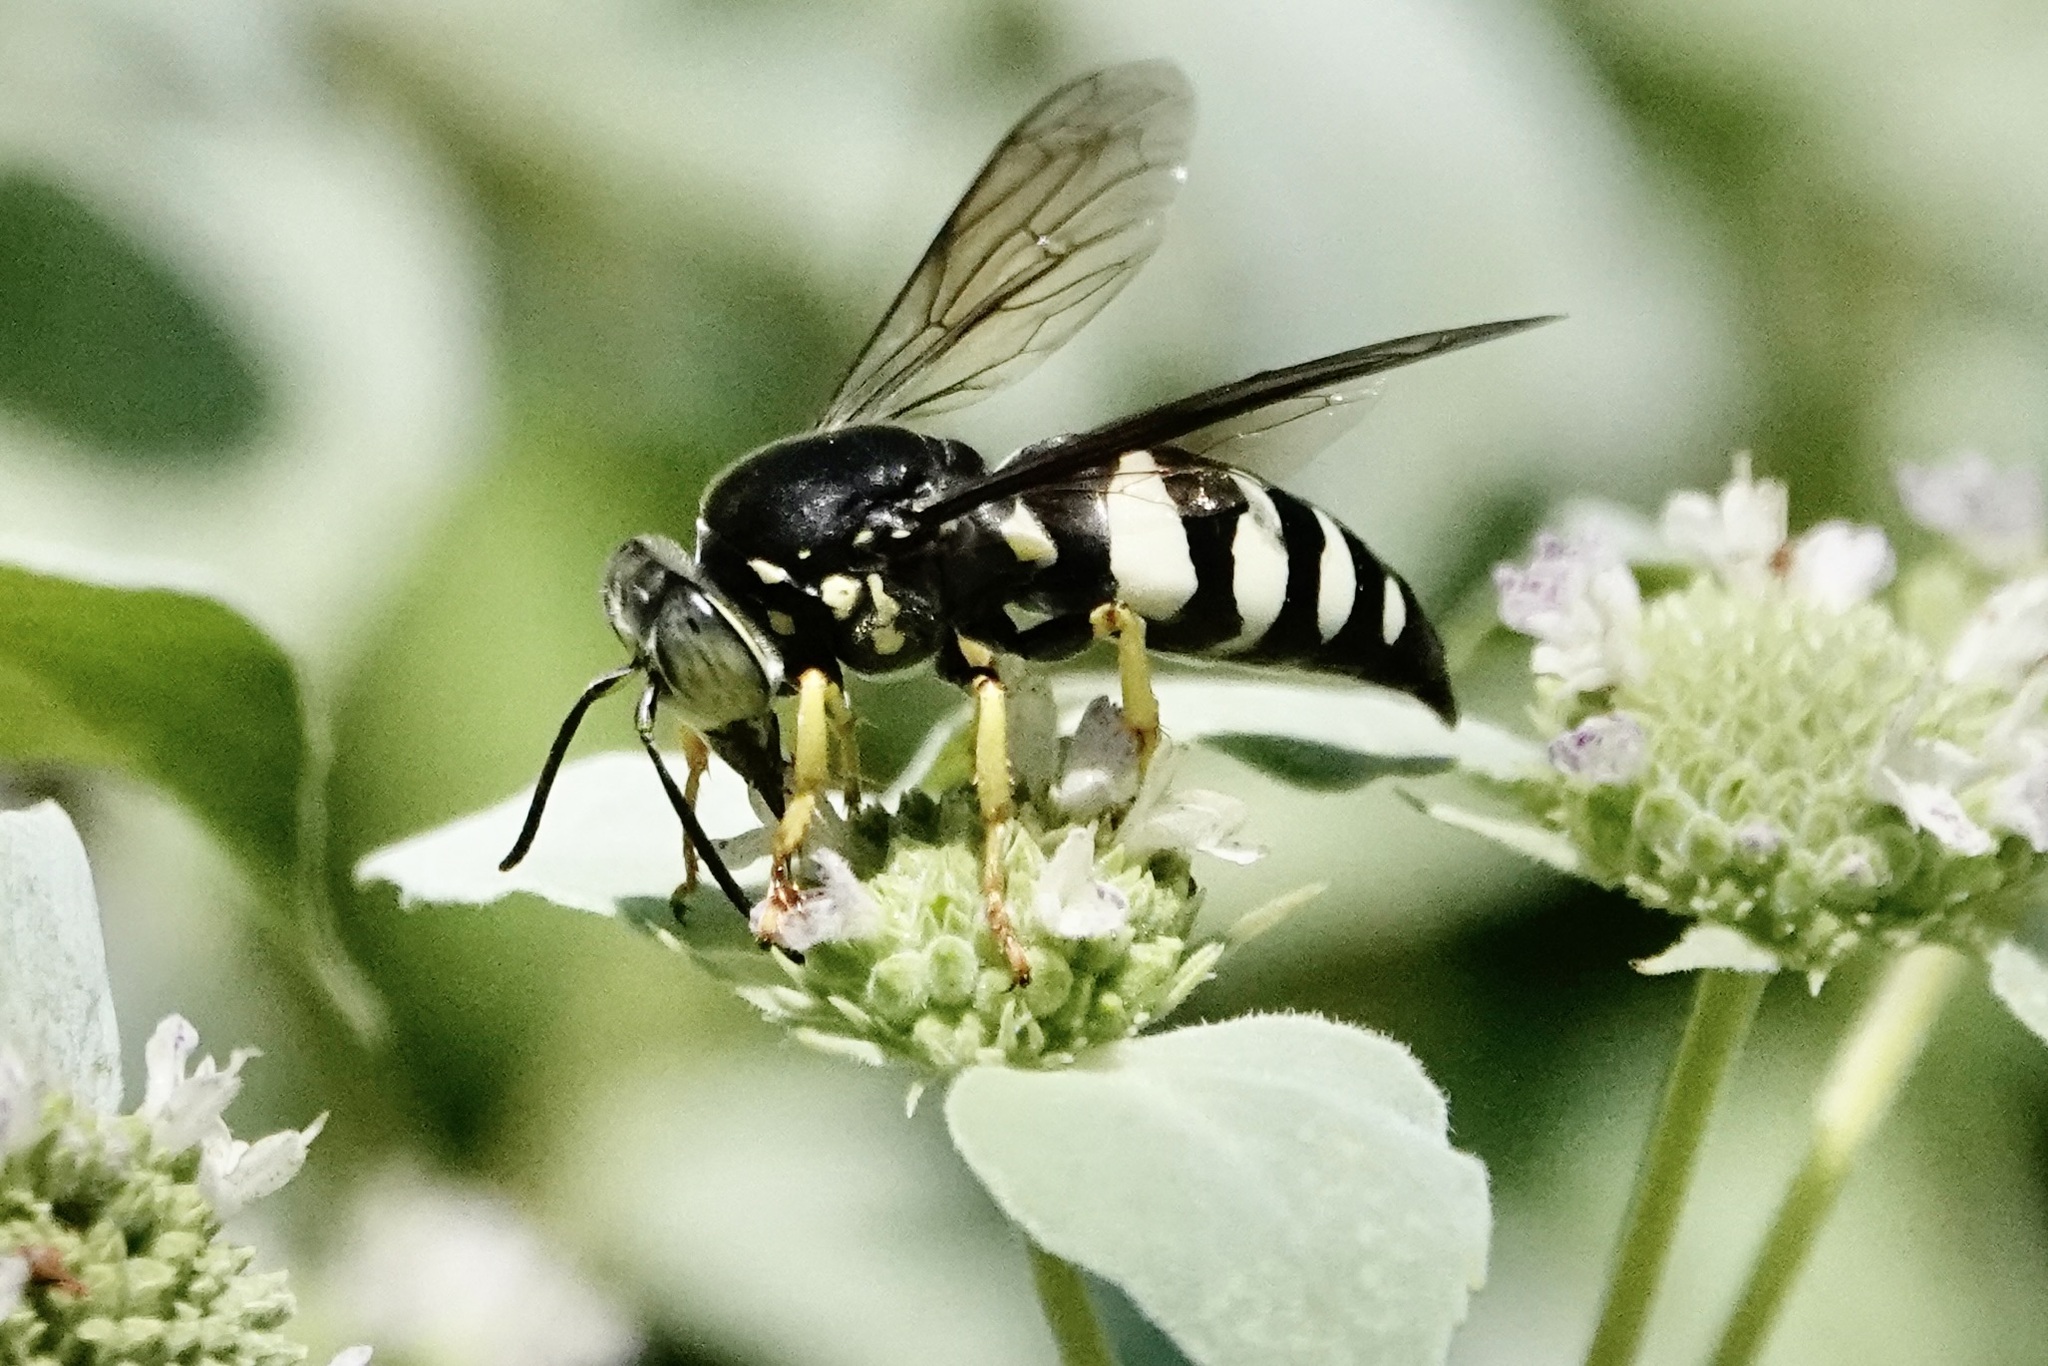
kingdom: Animalia
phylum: Arthropoda
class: Insecta
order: Hymenoptera
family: Crabronidae
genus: Bicyrtes
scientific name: Bicyrtes quadrifasciatus
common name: Four-banded stink bug hunter wasp
